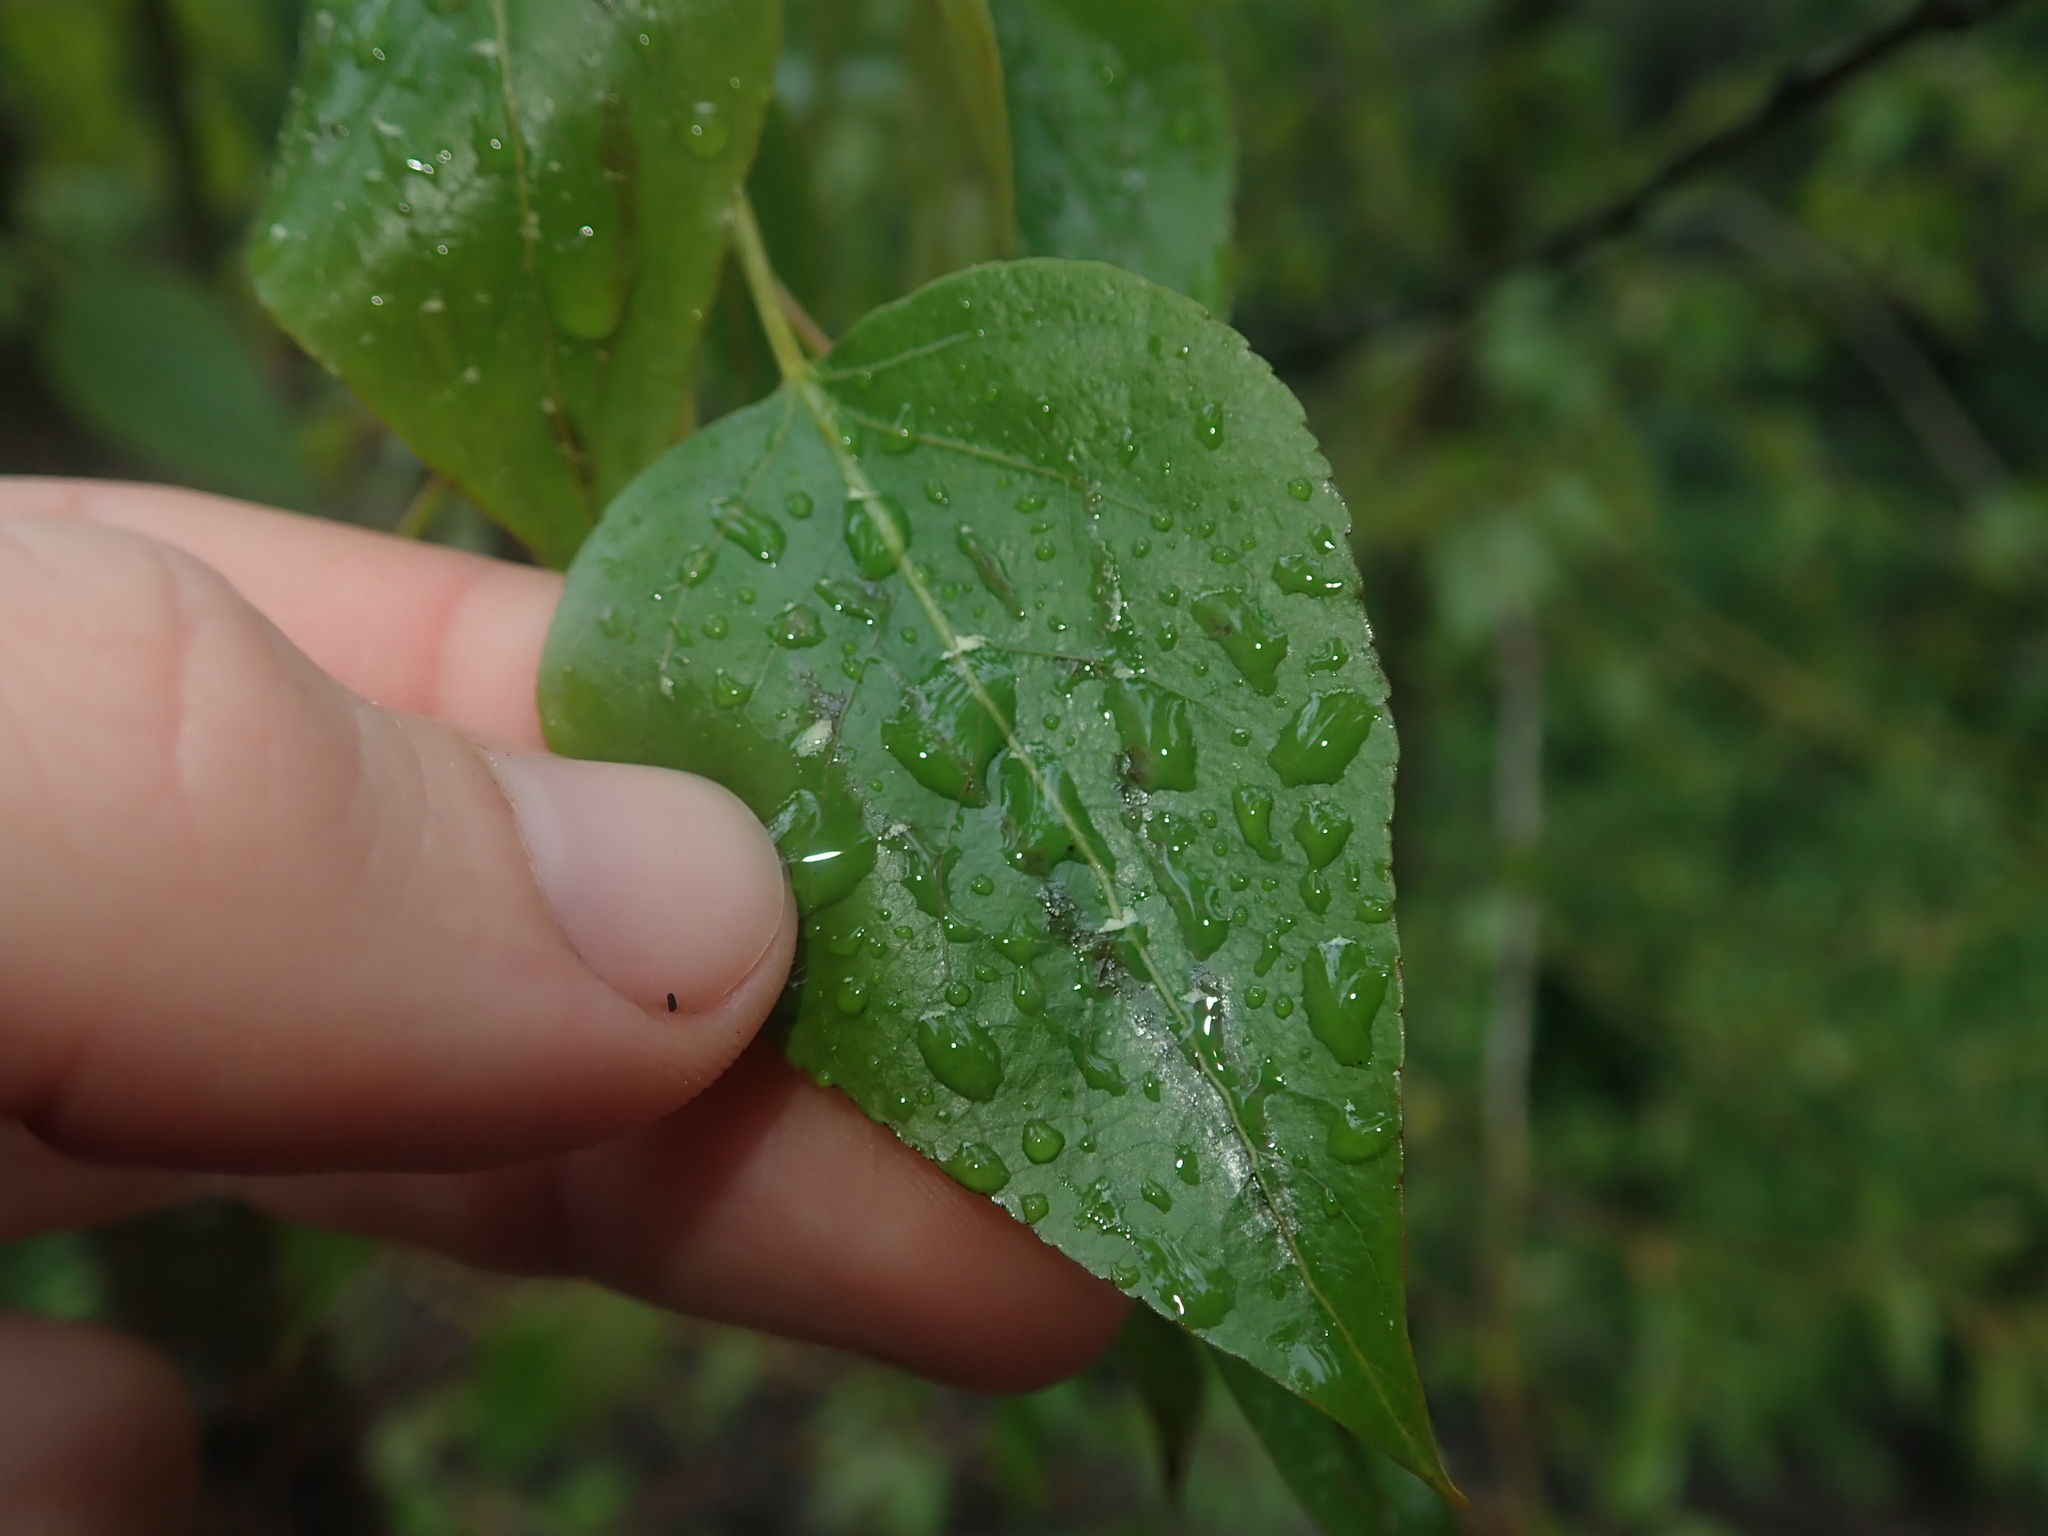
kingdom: Plantae
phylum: Tracheophyta
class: Magnoliopsida
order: Malpighiales
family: Salicaceae
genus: Populus
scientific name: Populus trichocarpa
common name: Black cottonwood
